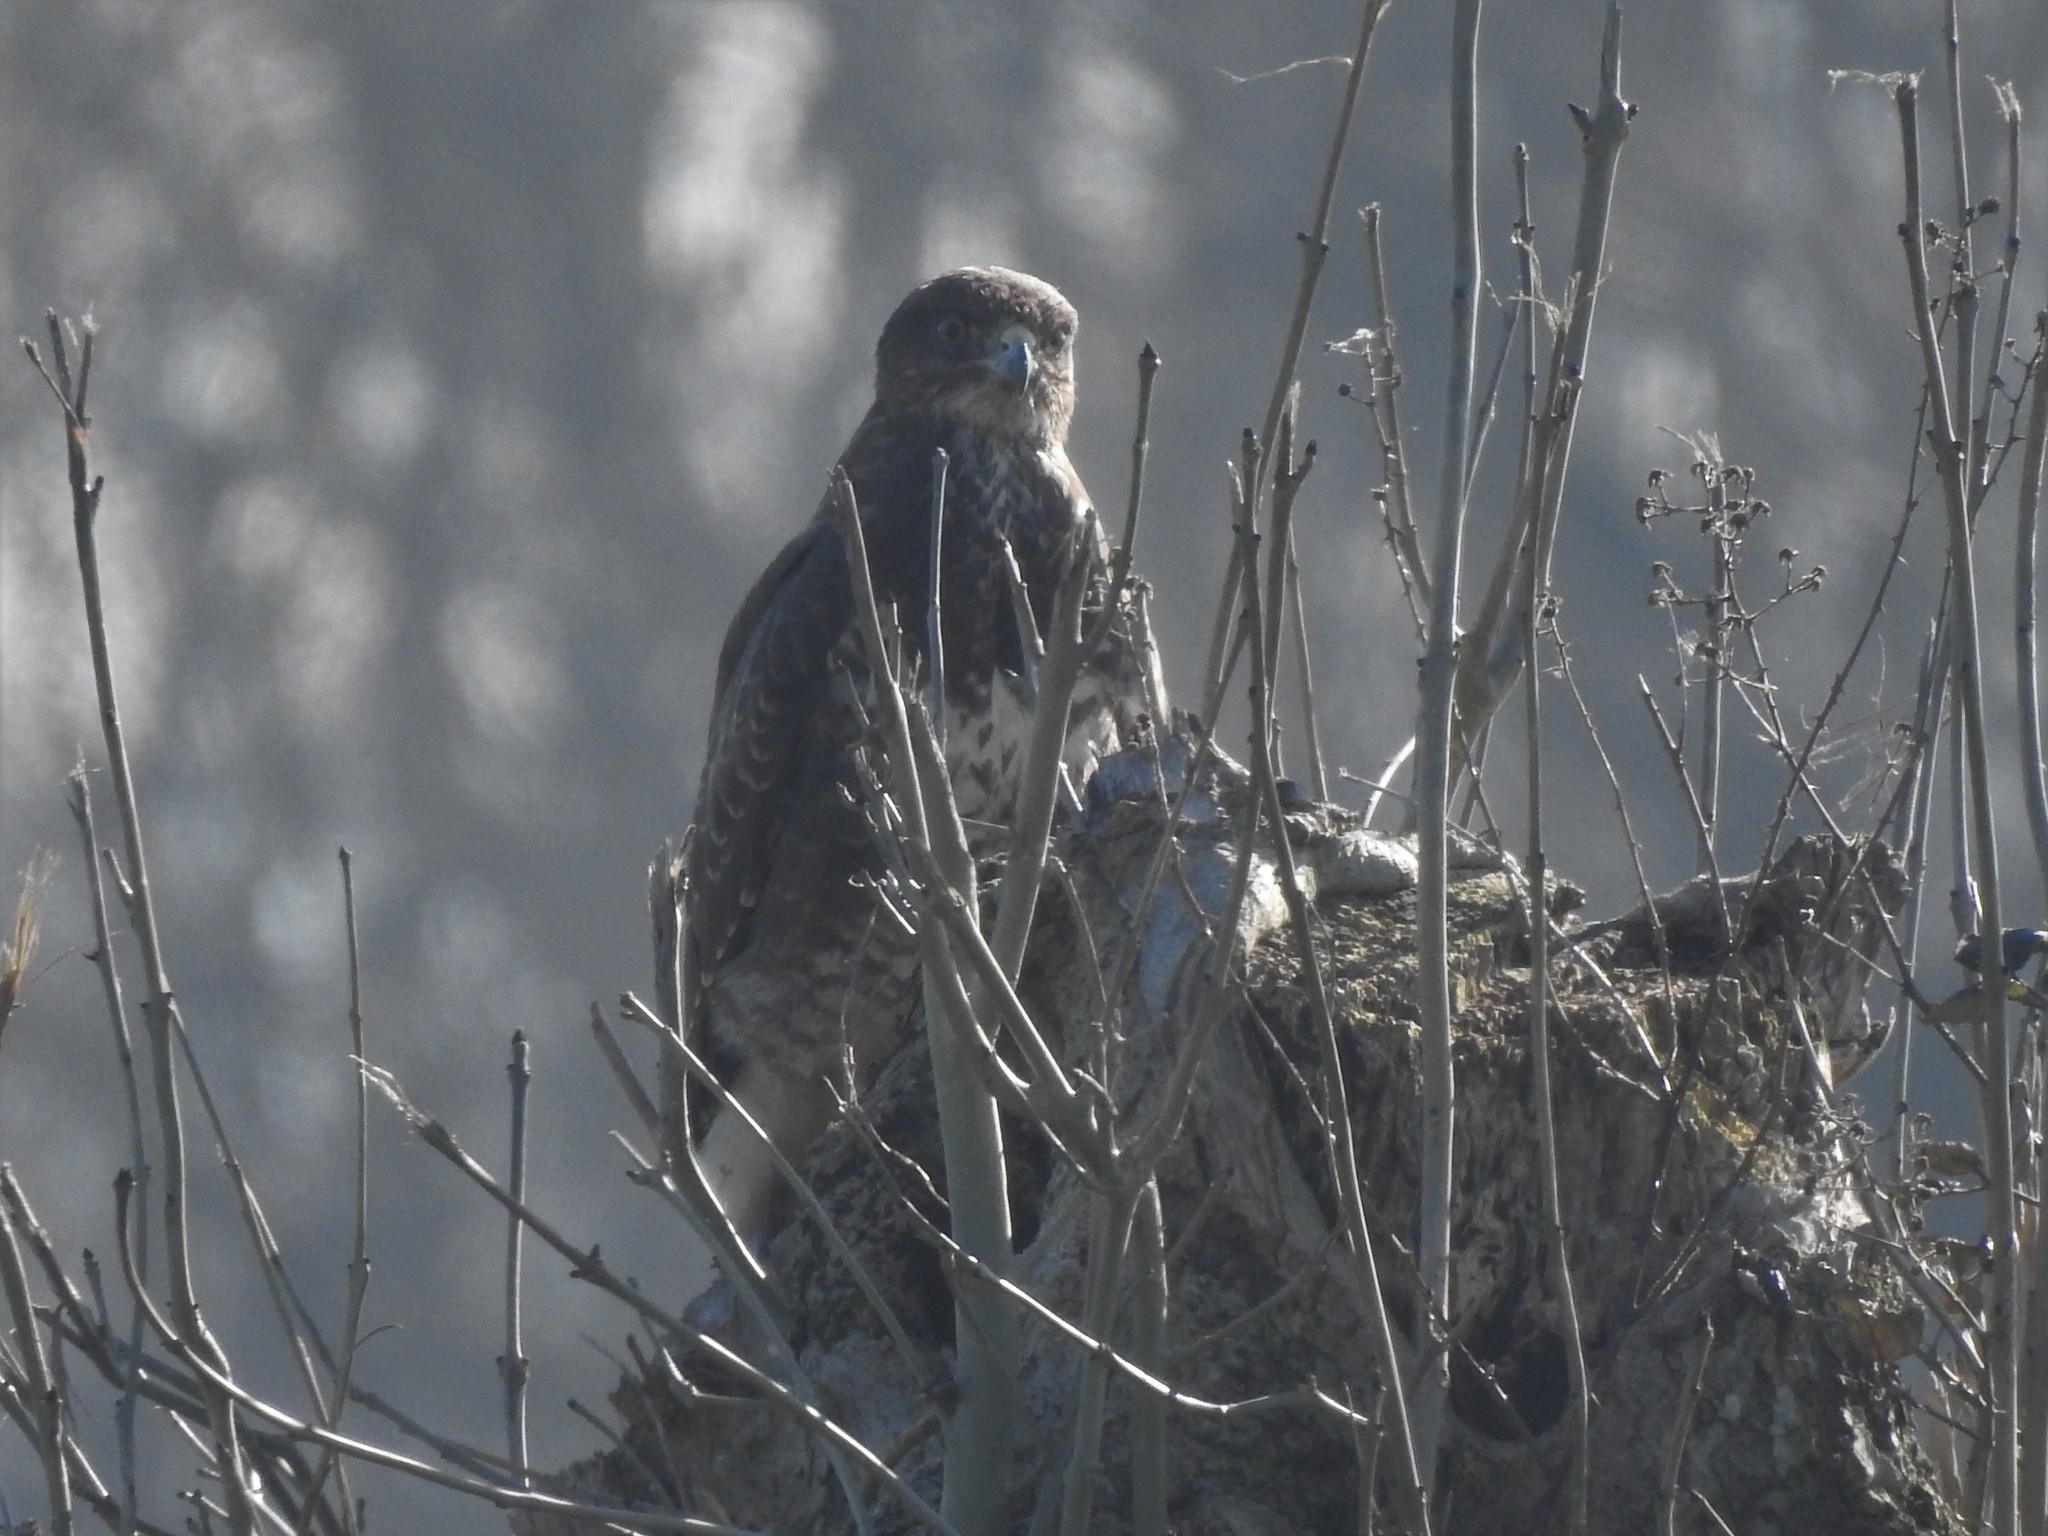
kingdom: Animalia
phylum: Chordata
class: Aves
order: Accipitriformes
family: Accipitridae
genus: Buteo
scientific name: Buteo buteo
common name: Common buzzard
